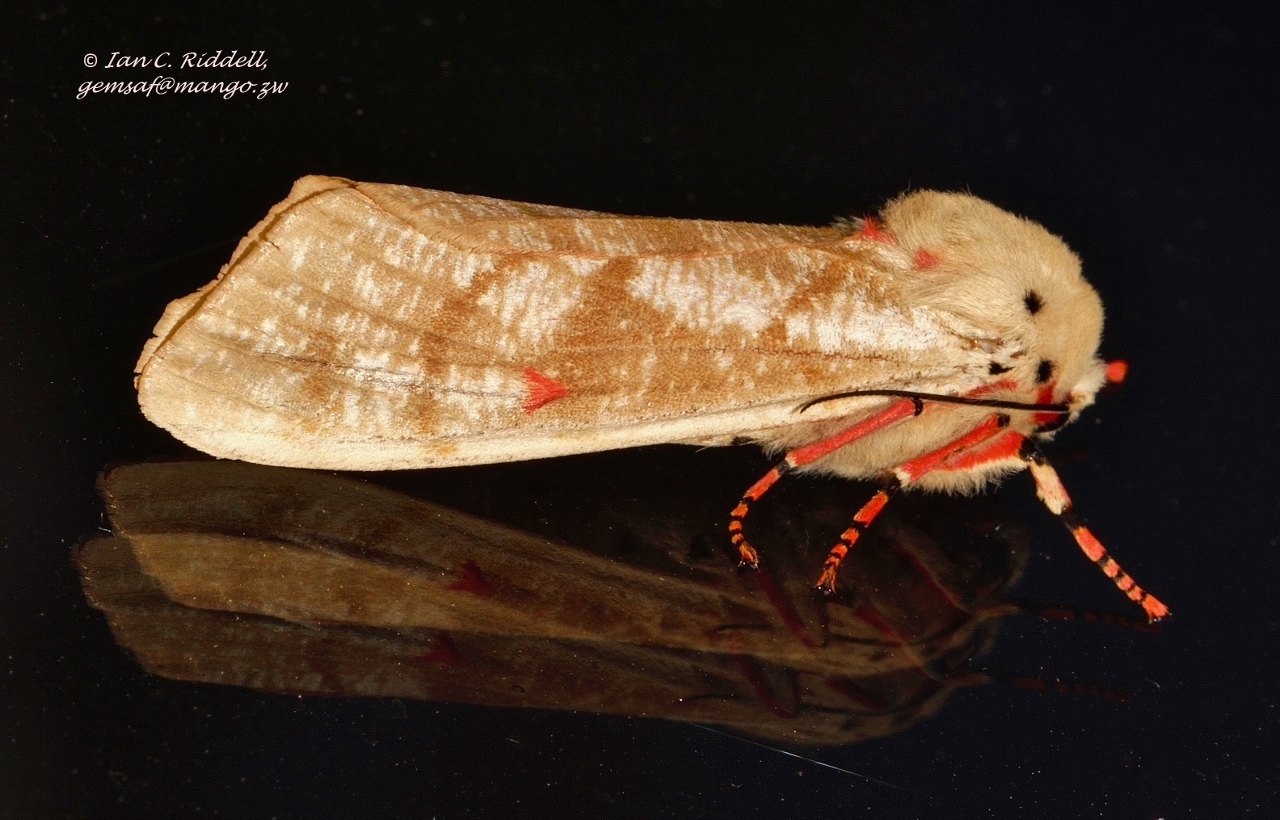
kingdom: Animalia
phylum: Arthropoda
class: Insecta
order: Lepidoptera
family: Erebidae
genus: Teracotona
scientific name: Teracotona metaxantha
